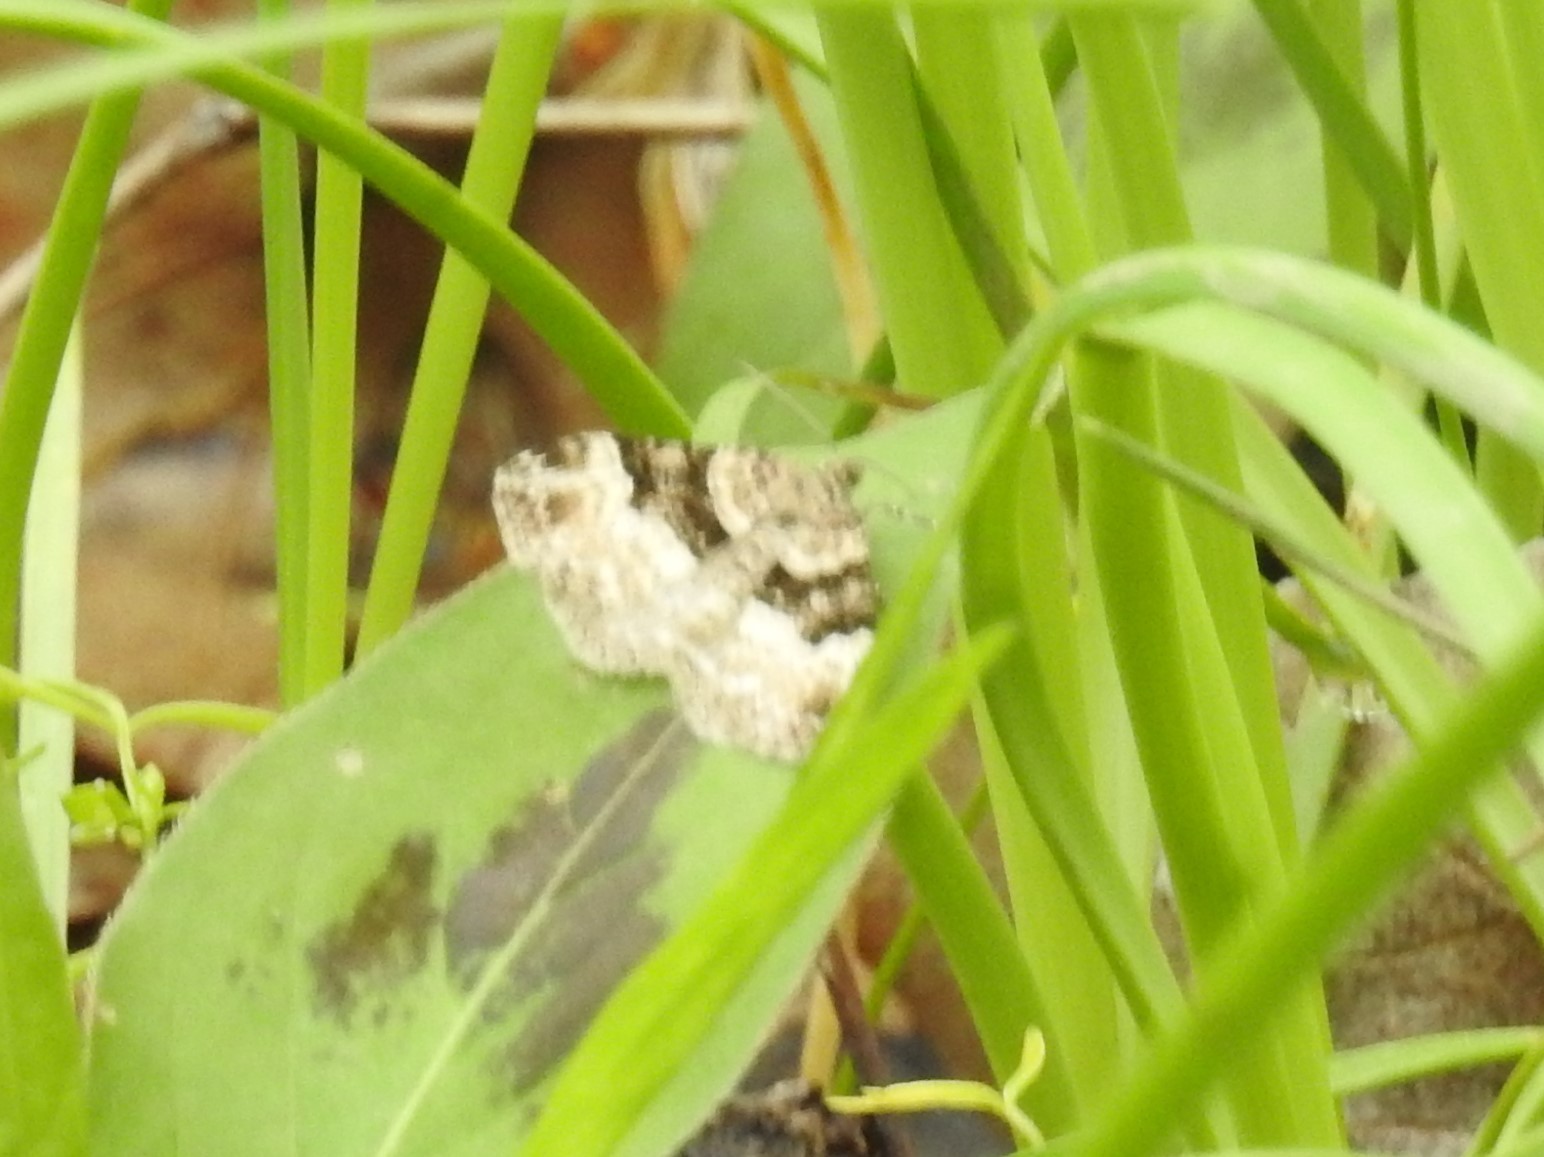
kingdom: Animalia
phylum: Arthropoda
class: Insecta
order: Lepidoptera
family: Geometridae
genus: Costaconvexa
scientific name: Costaconvexa centrostrigaria
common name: Bent-line carpet
